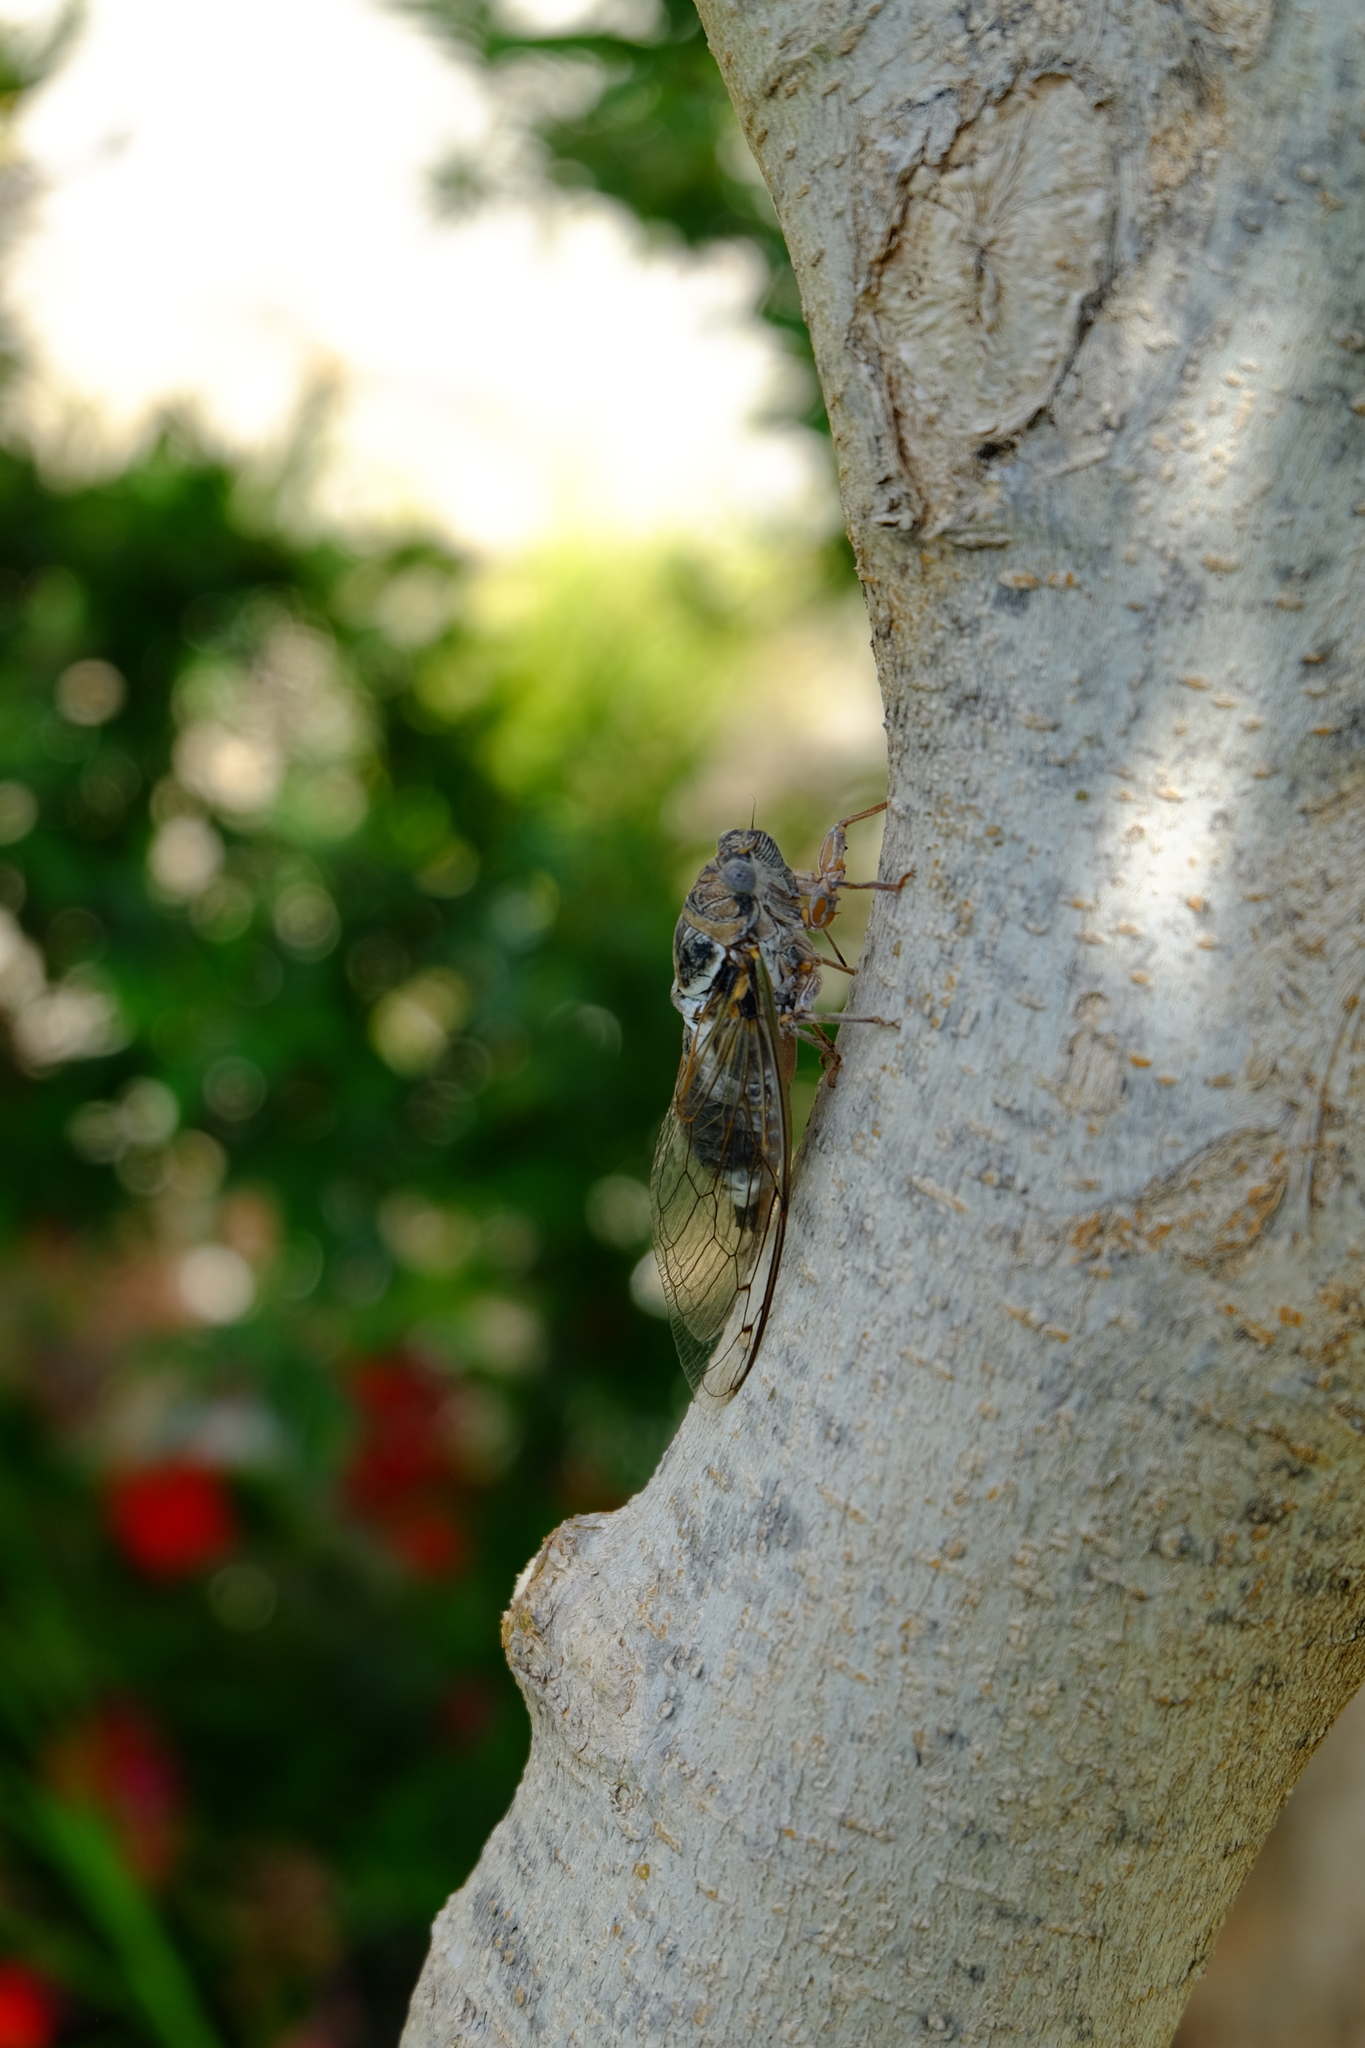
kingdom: Animalia
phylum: Arthropoda
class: Insecta
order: Hemiptera
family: Cicadidae
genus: Lyristes
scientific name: Lyristes gemellus
